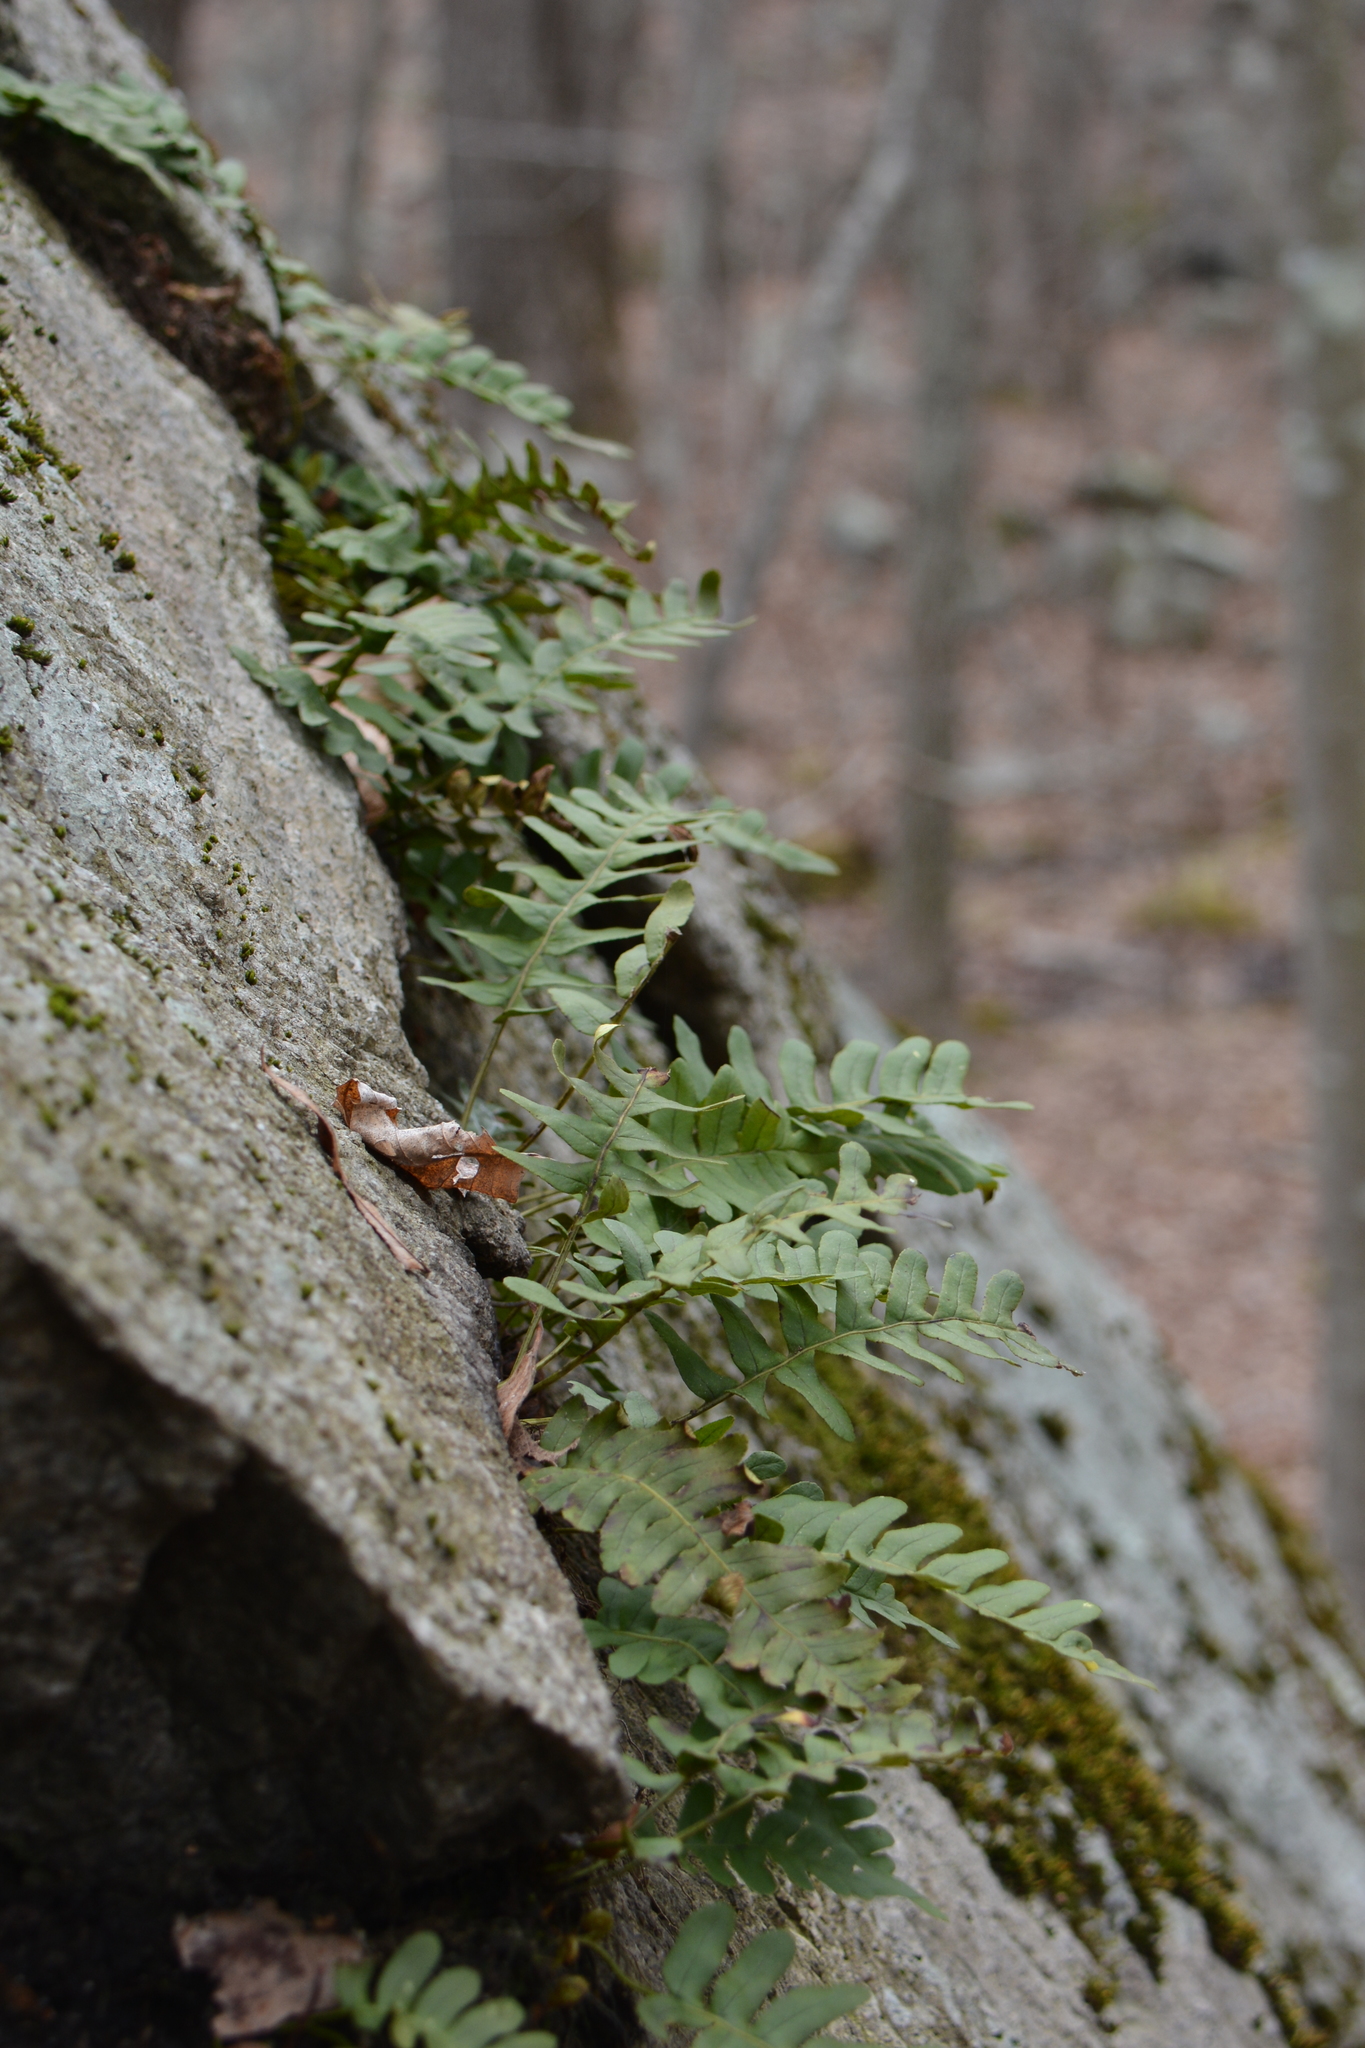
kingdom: Plantae
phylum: Tracheophyta
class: Polypodiopsida
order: Polypodiales
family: Polypodiaceae
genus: Polypodium
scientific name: Polypodium virginianum
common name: American wall fern
